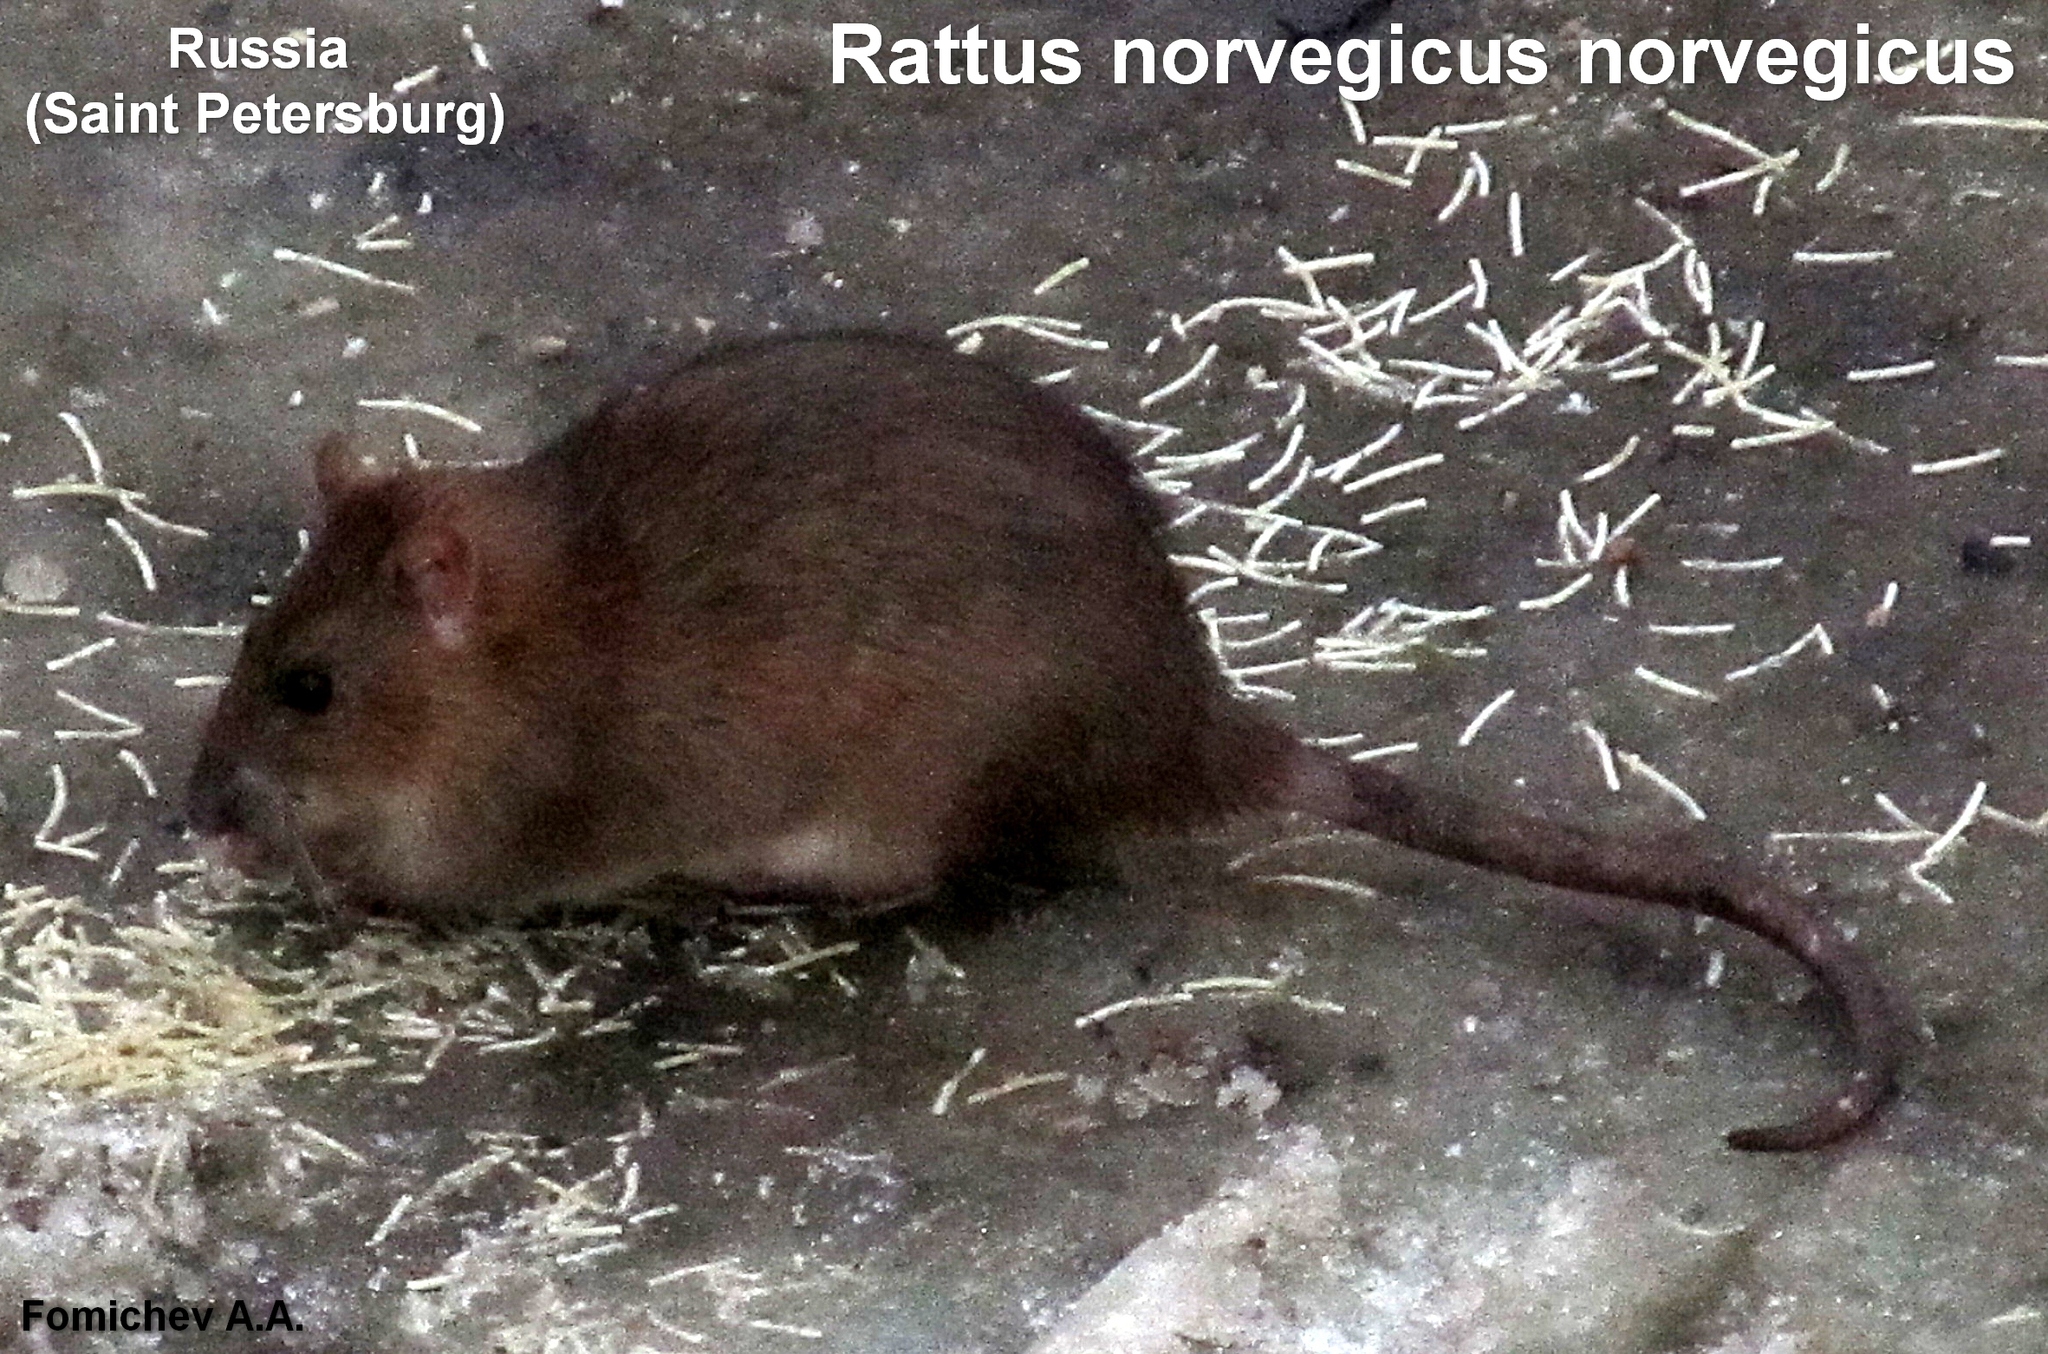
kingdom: Animalia
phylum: Chordata
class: Mammalia
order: Rodentia
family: Muridae
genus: Rattus
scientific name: Rattus norvegicus
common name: Brown rat
